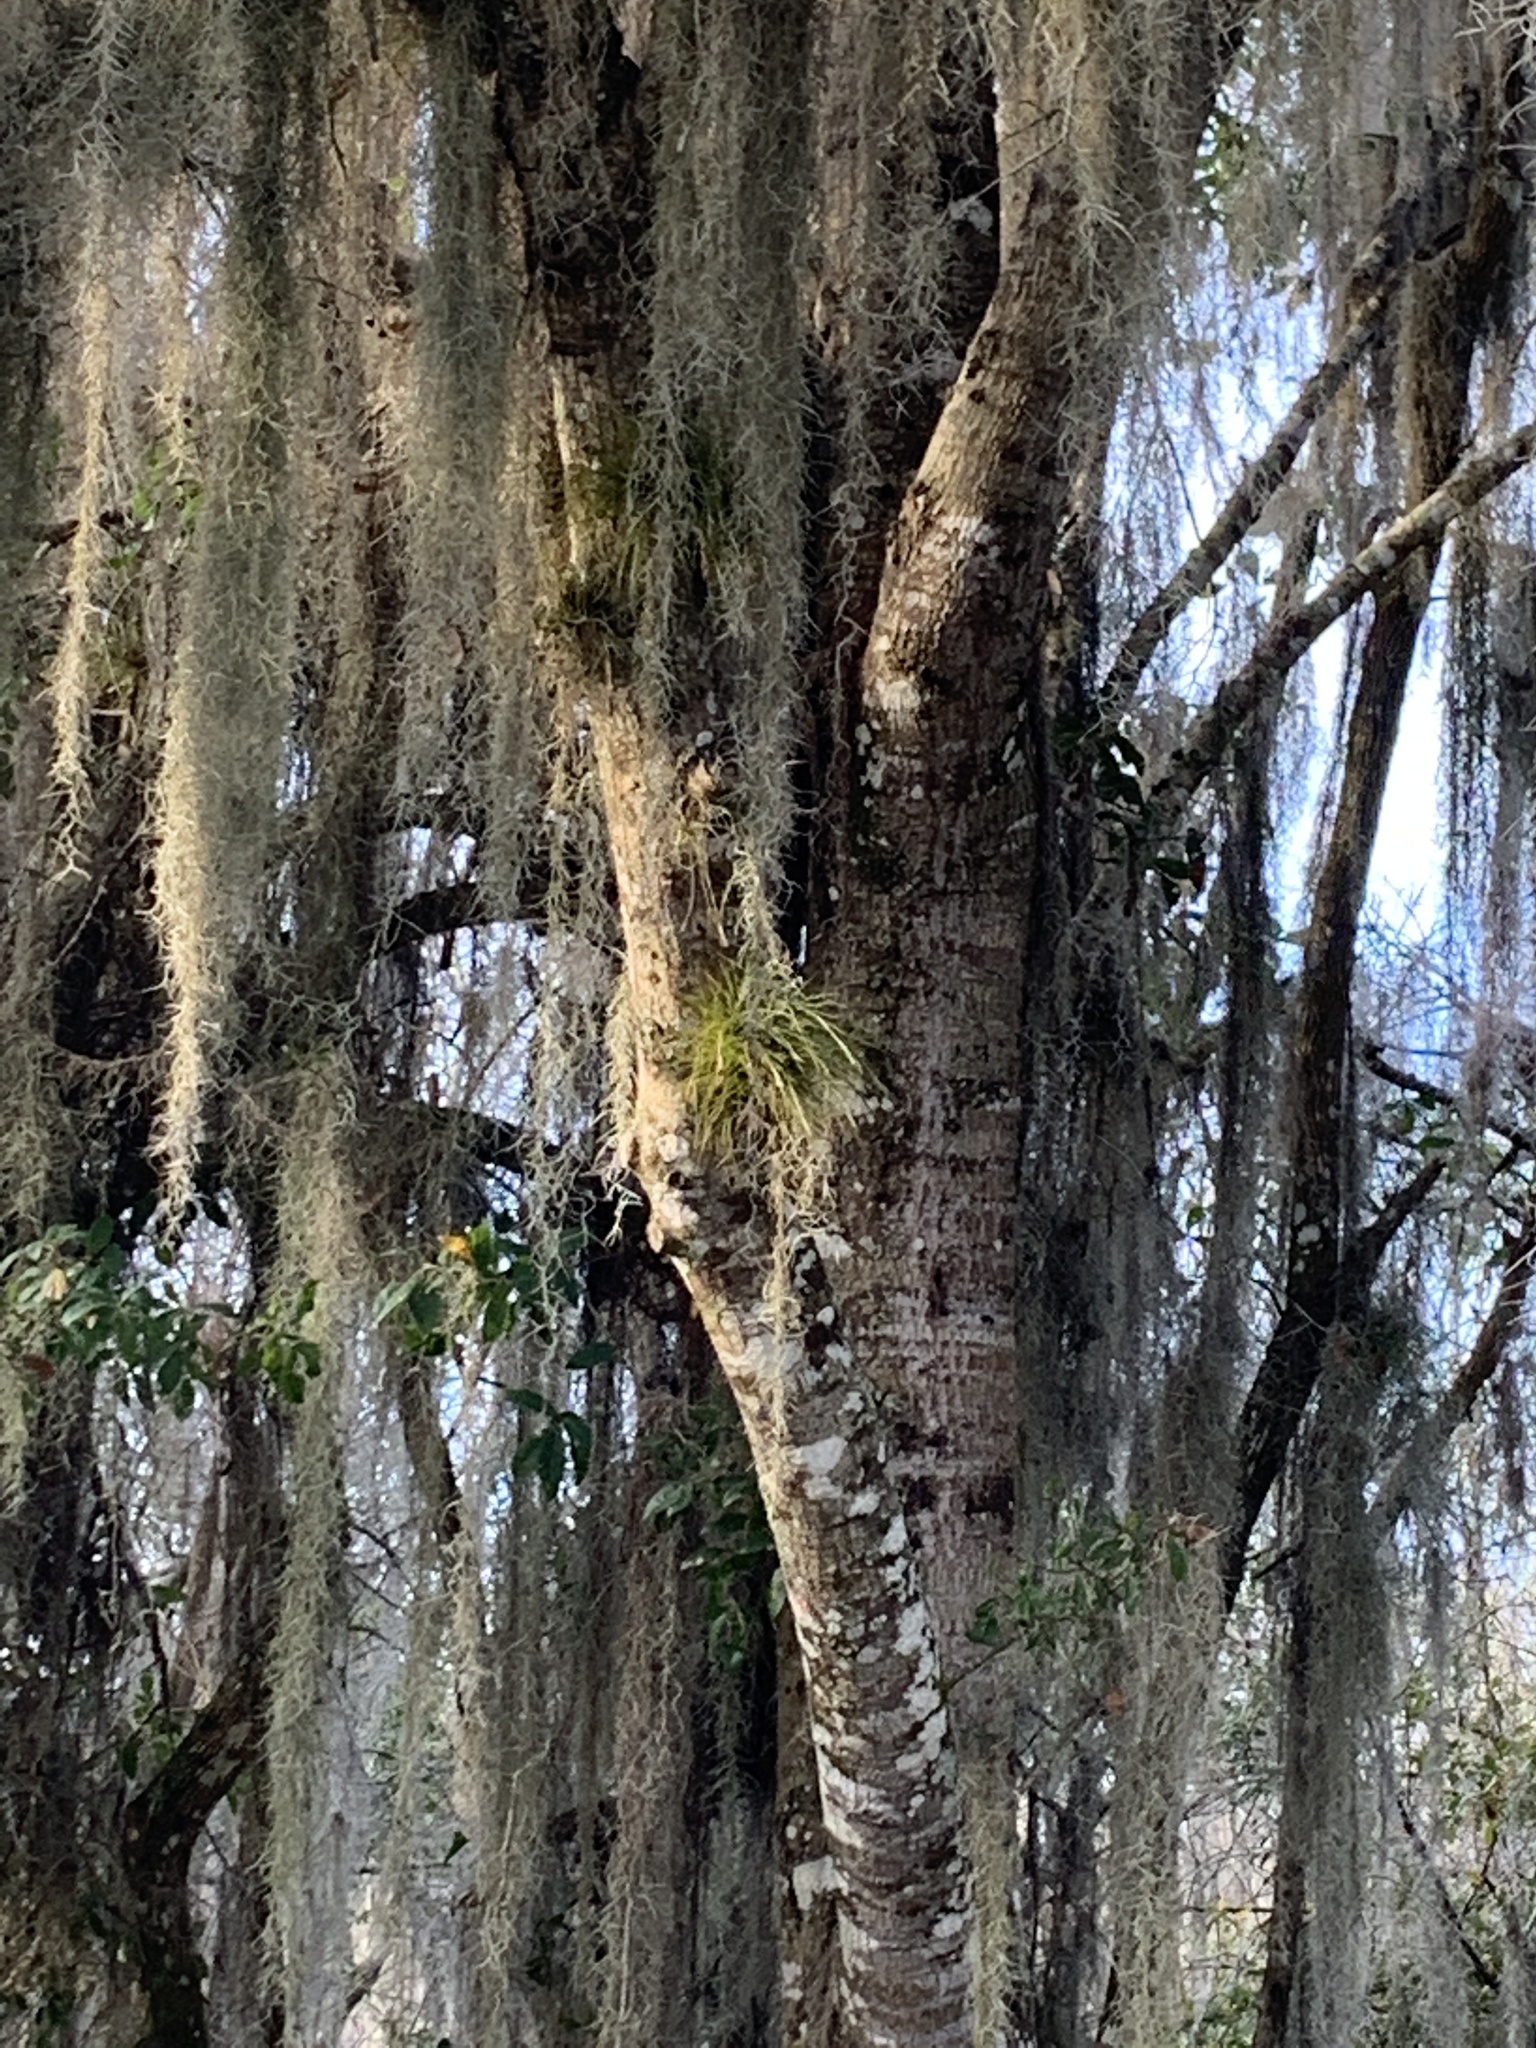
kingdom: Plantae
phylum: Tracheophyta
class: Liliopsida
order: Poales
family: Bromeliaceae
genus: Tillandsia
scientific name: Tillandsia setacea
